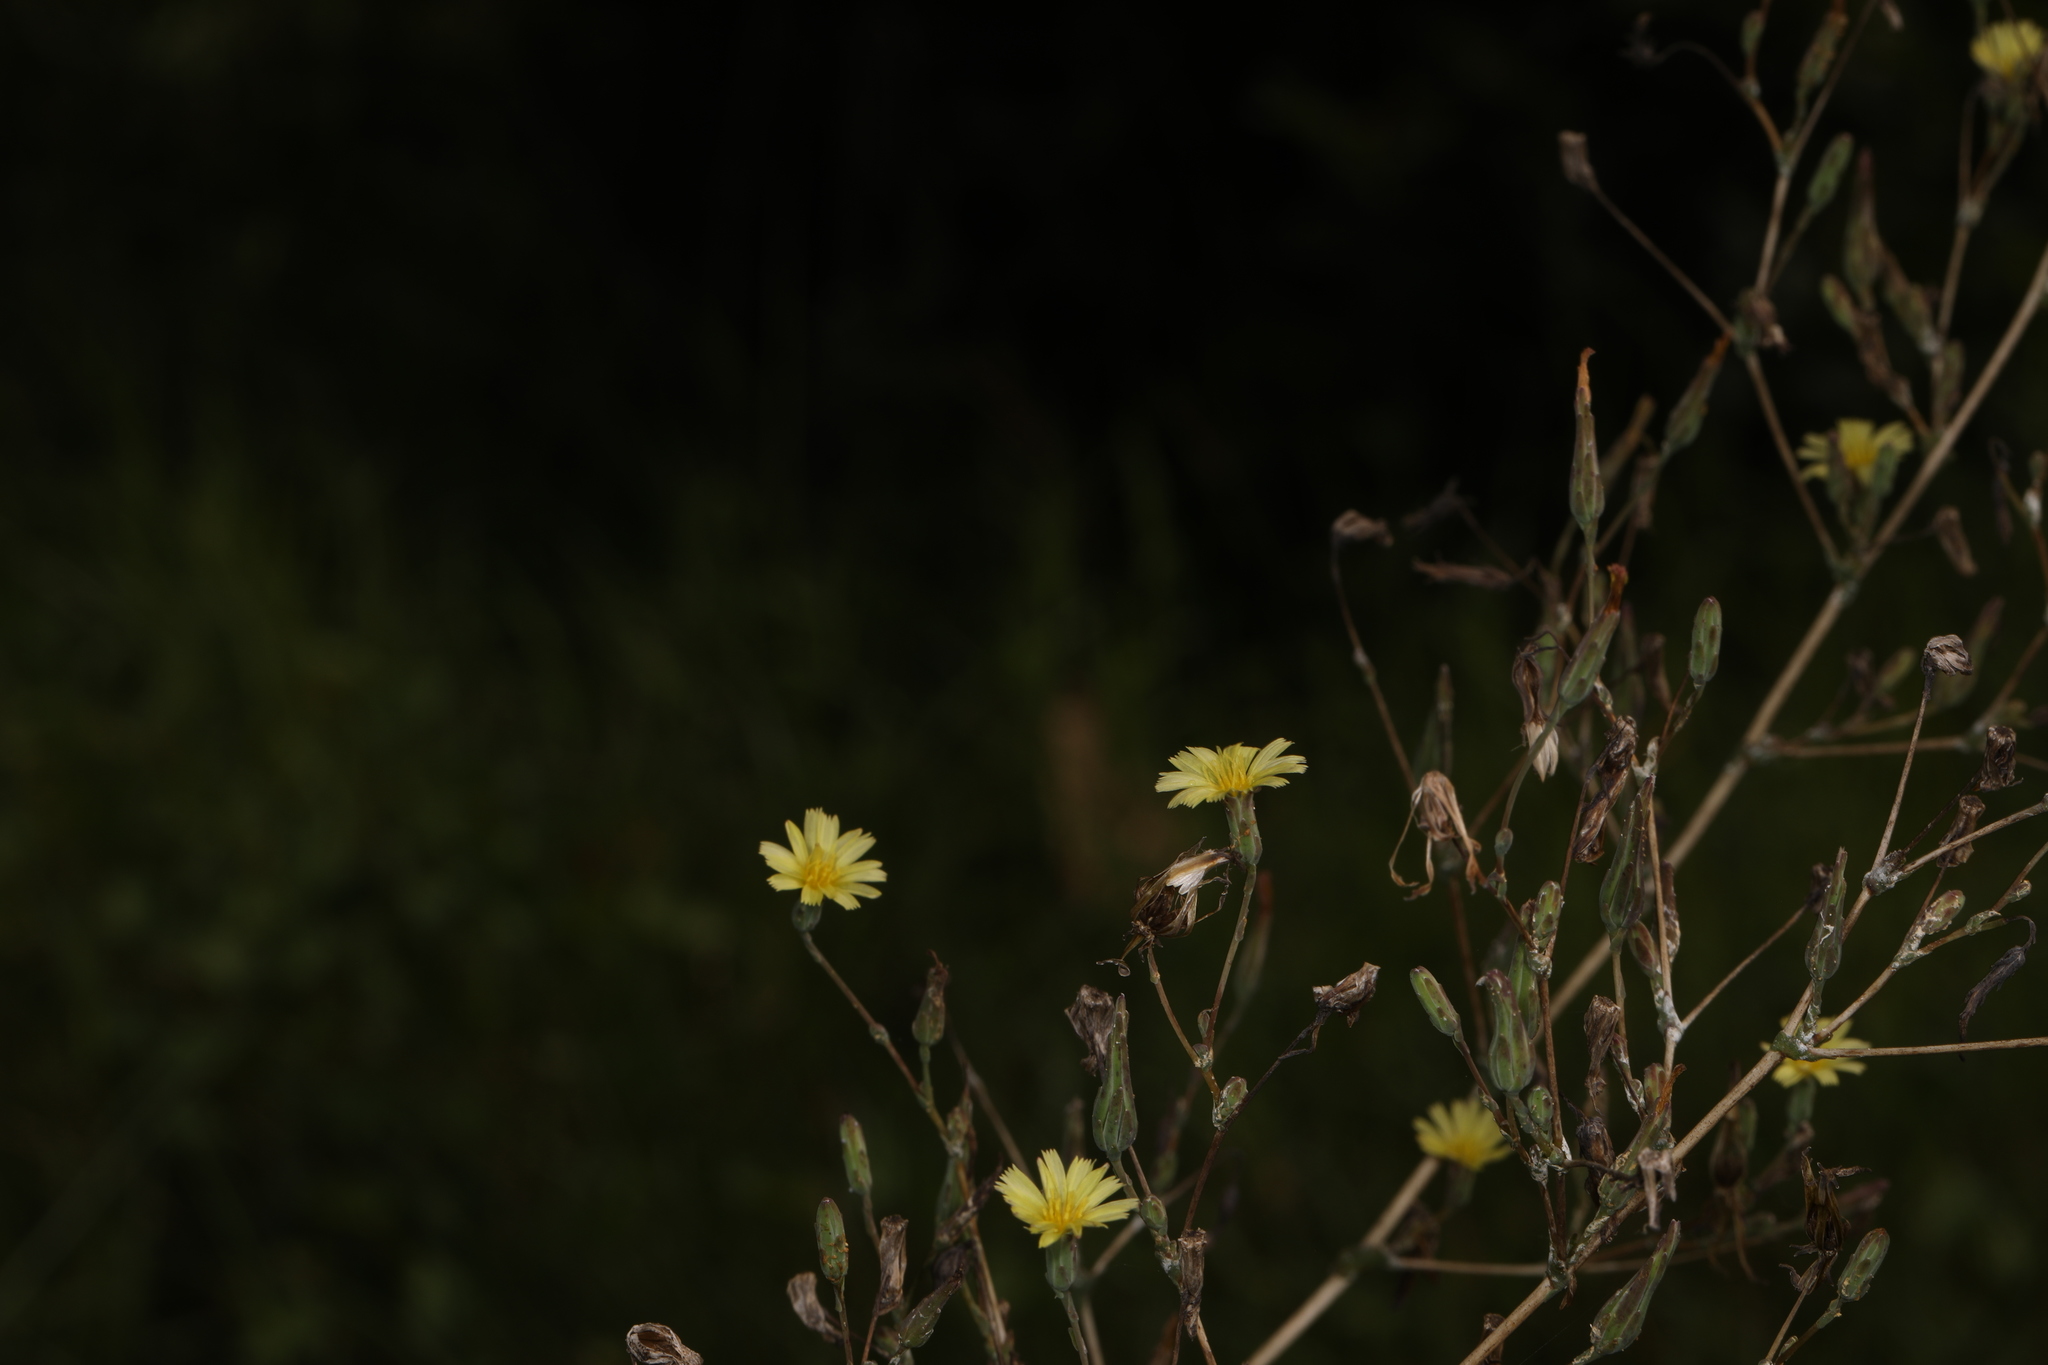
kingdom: Plantae
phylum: Tracheophyta
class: Magnoliopsida
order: Asterales
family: Asteraceae
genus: Lactuca
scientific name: Lactuca serriola
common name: Prickly lettuce
